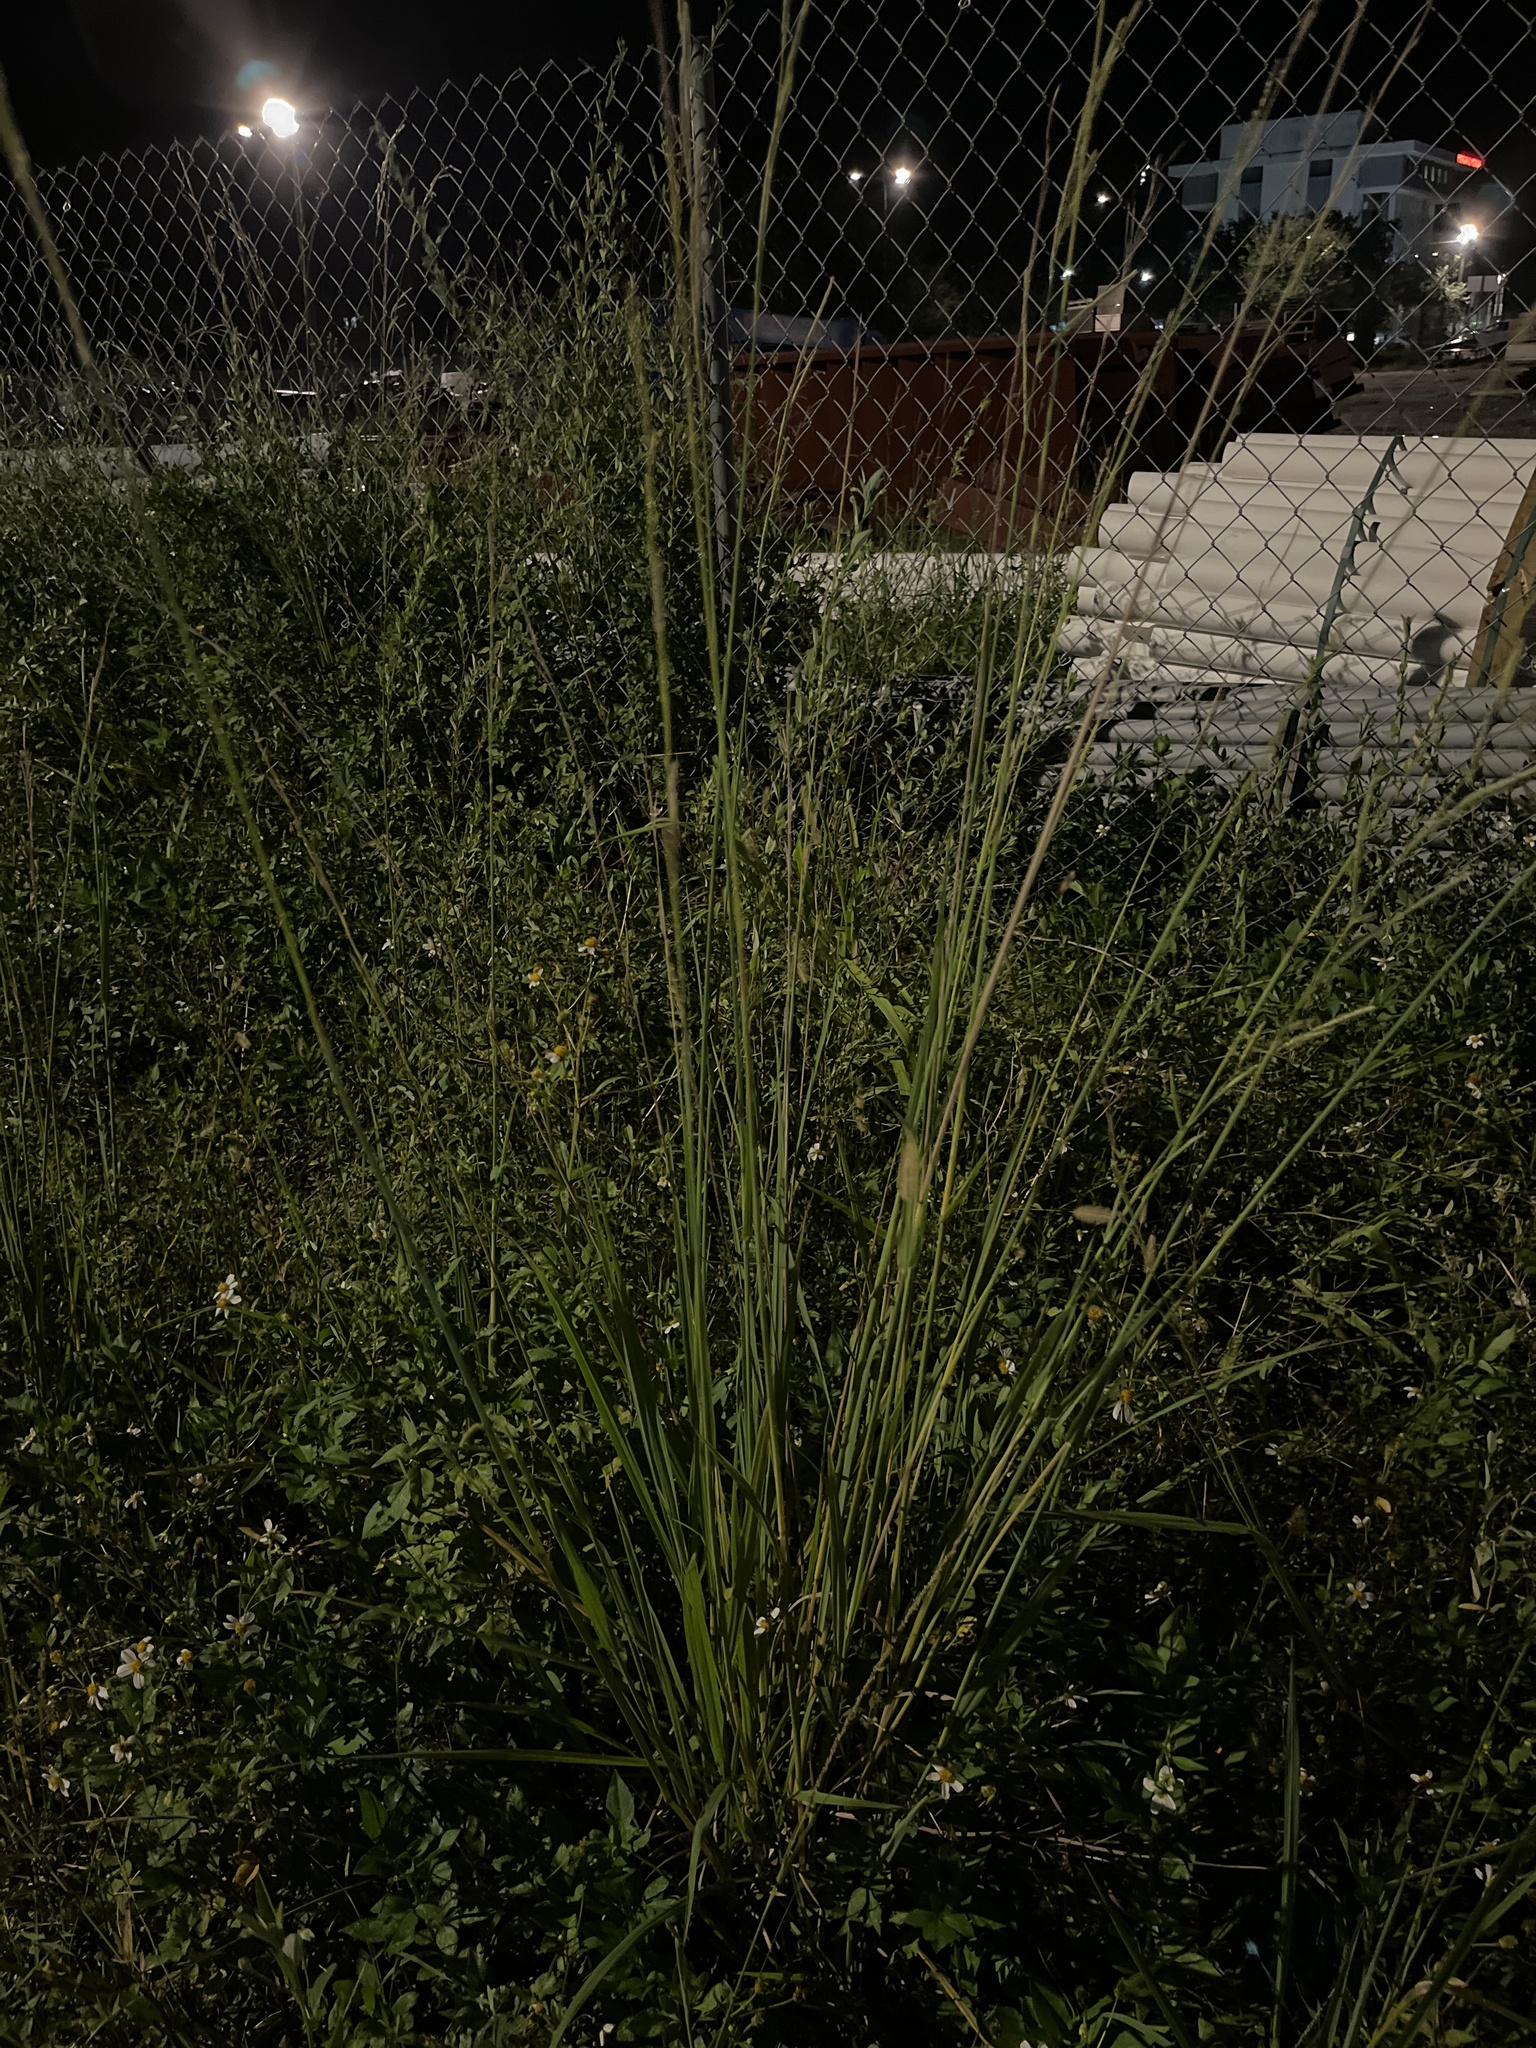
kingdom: Plantae
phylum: Tracheophyta
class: Liliopsida
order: Poales
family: Poaceae
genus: Paspalum
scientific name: Paspalum urvillei
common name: Vasey's grass
